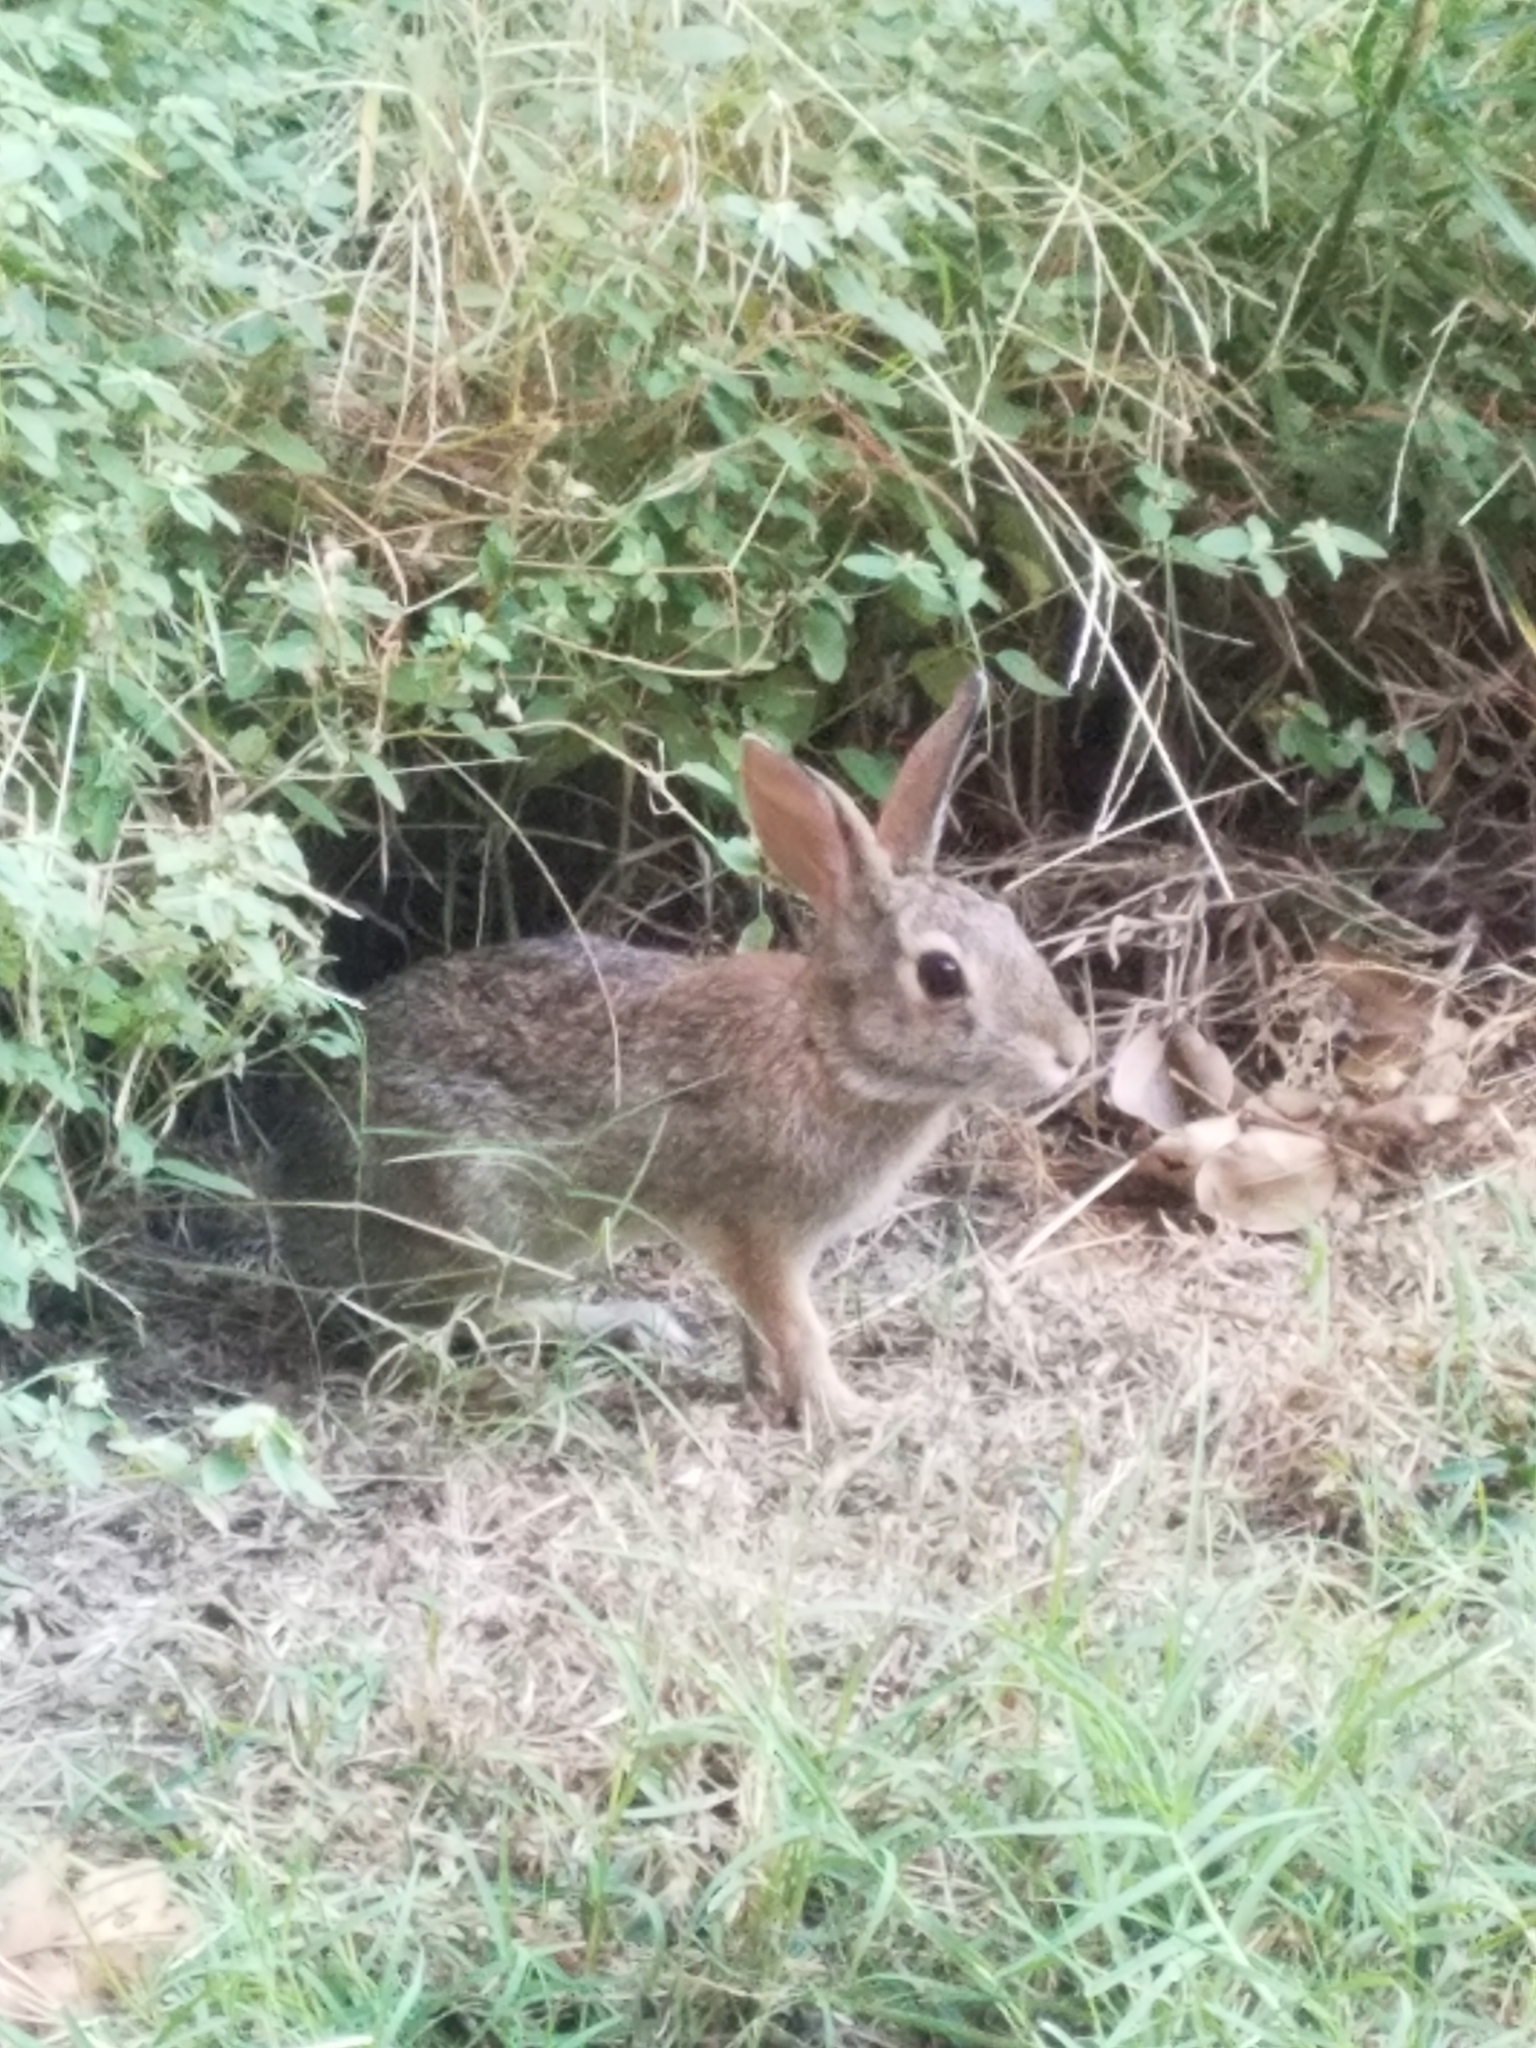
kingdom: Animalia
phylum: Chordata
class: Mammalia
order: Lagomorpha
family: Leporidae
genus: Sylvilagus
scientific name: Sylvilagus floridanus
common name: Eastern cottontail
